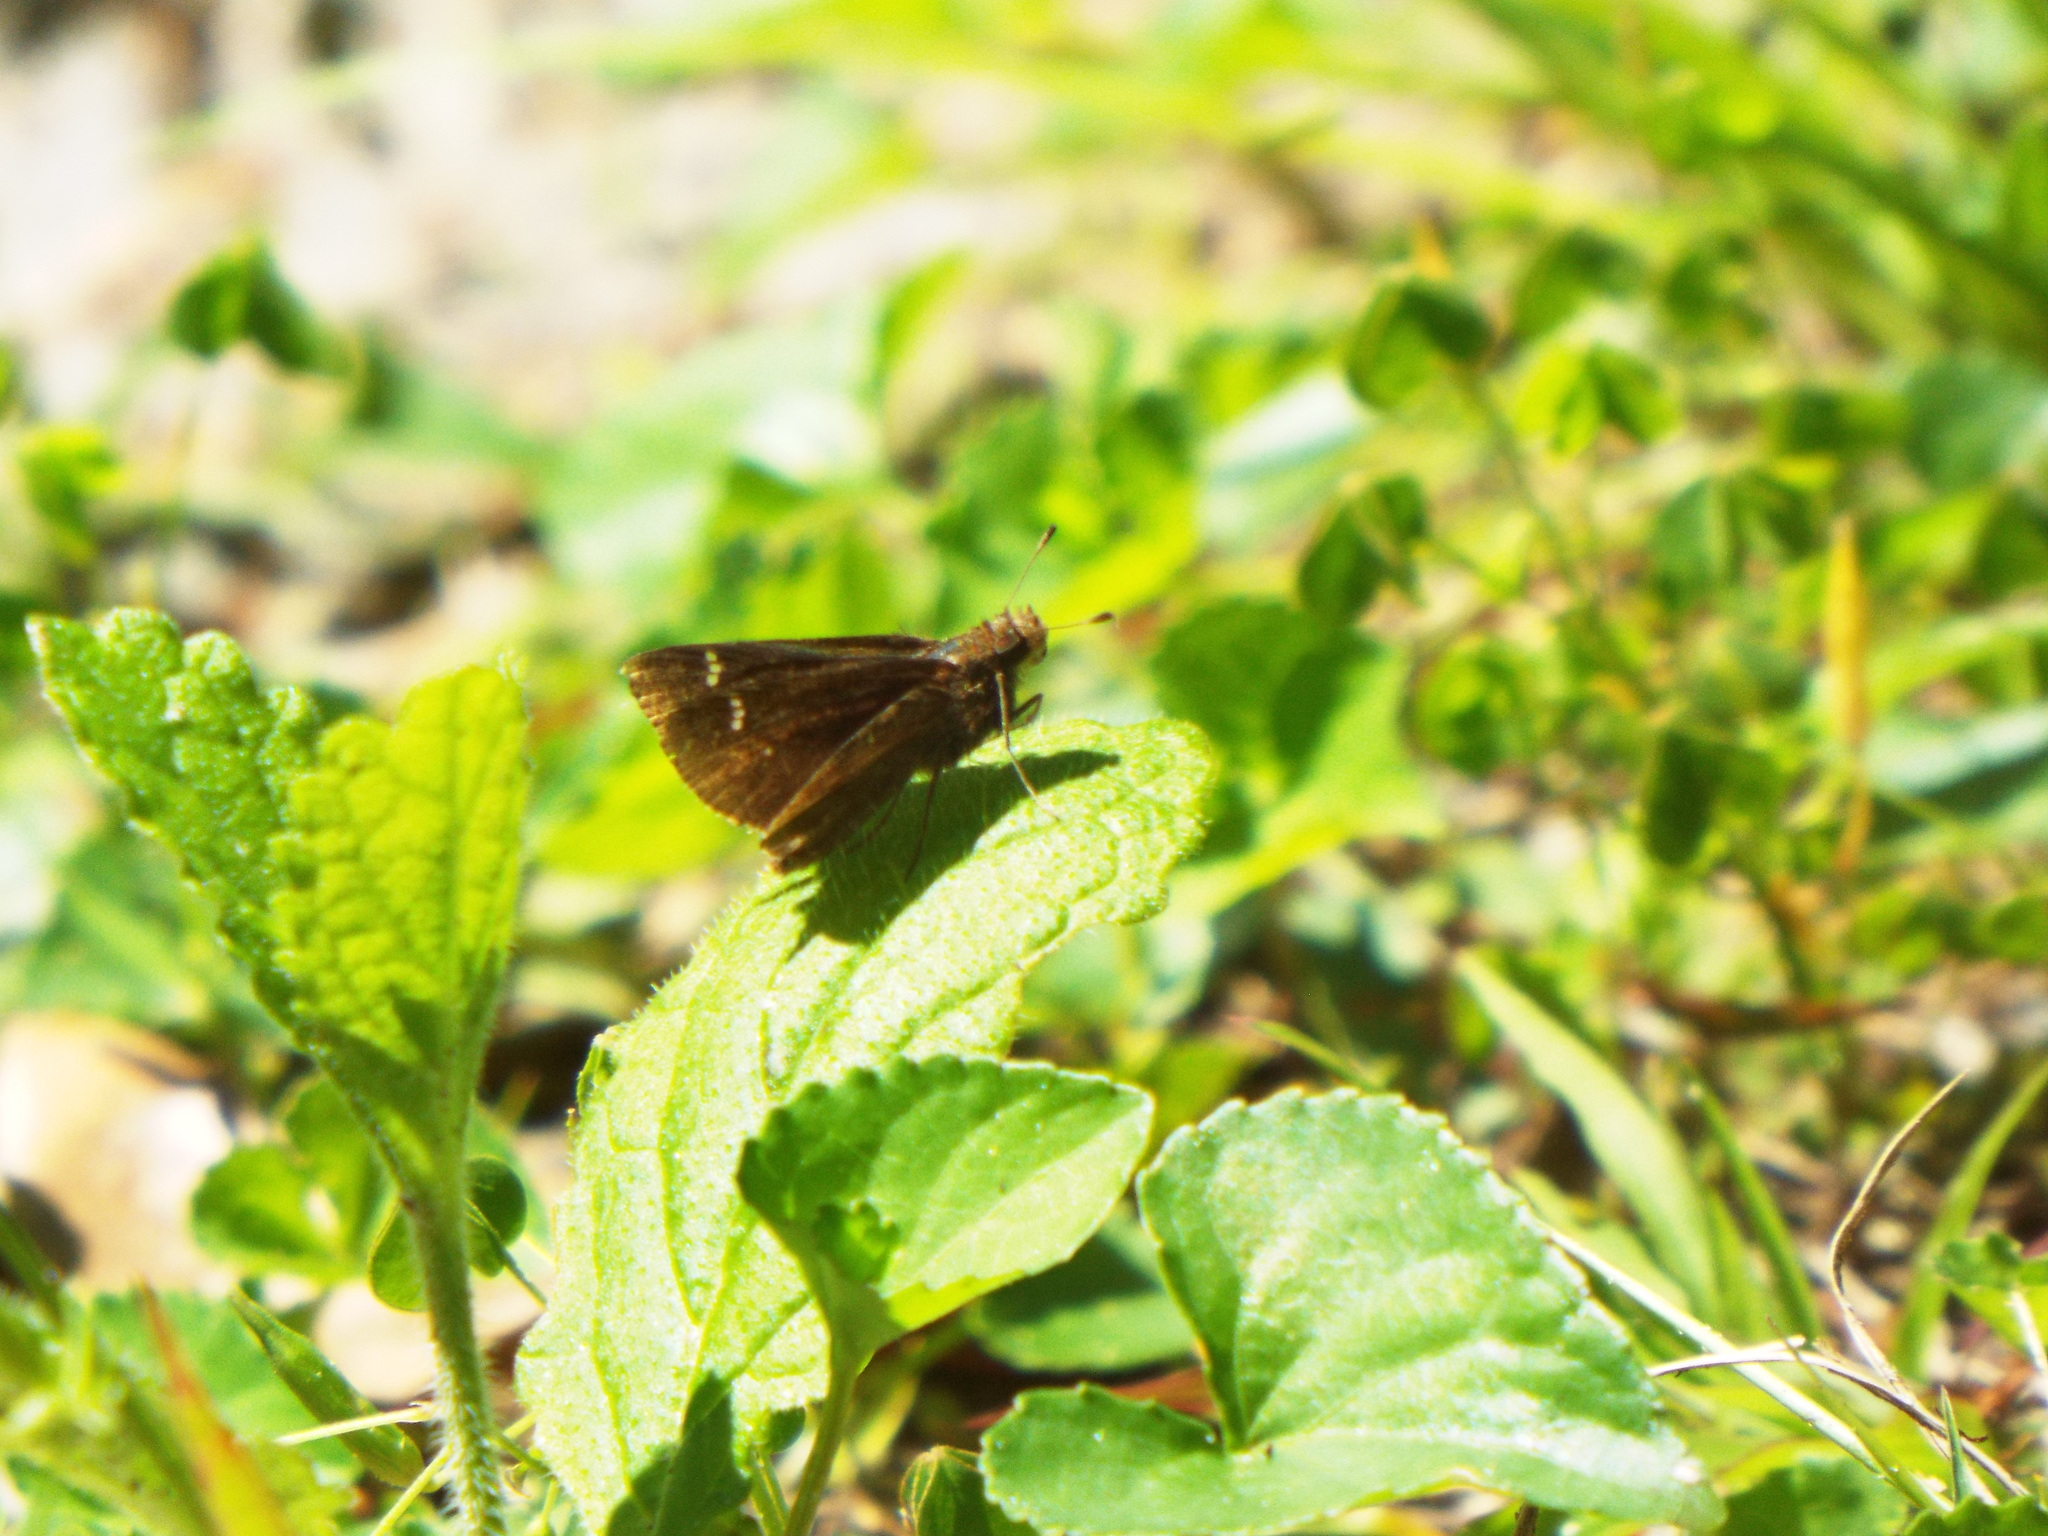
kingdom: Animalia
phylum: Arthropoda
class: Insecta
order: Lepidoptera
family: Hesperiidae
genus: Lerema
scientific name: Lerema accius
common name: Clouded skipper
